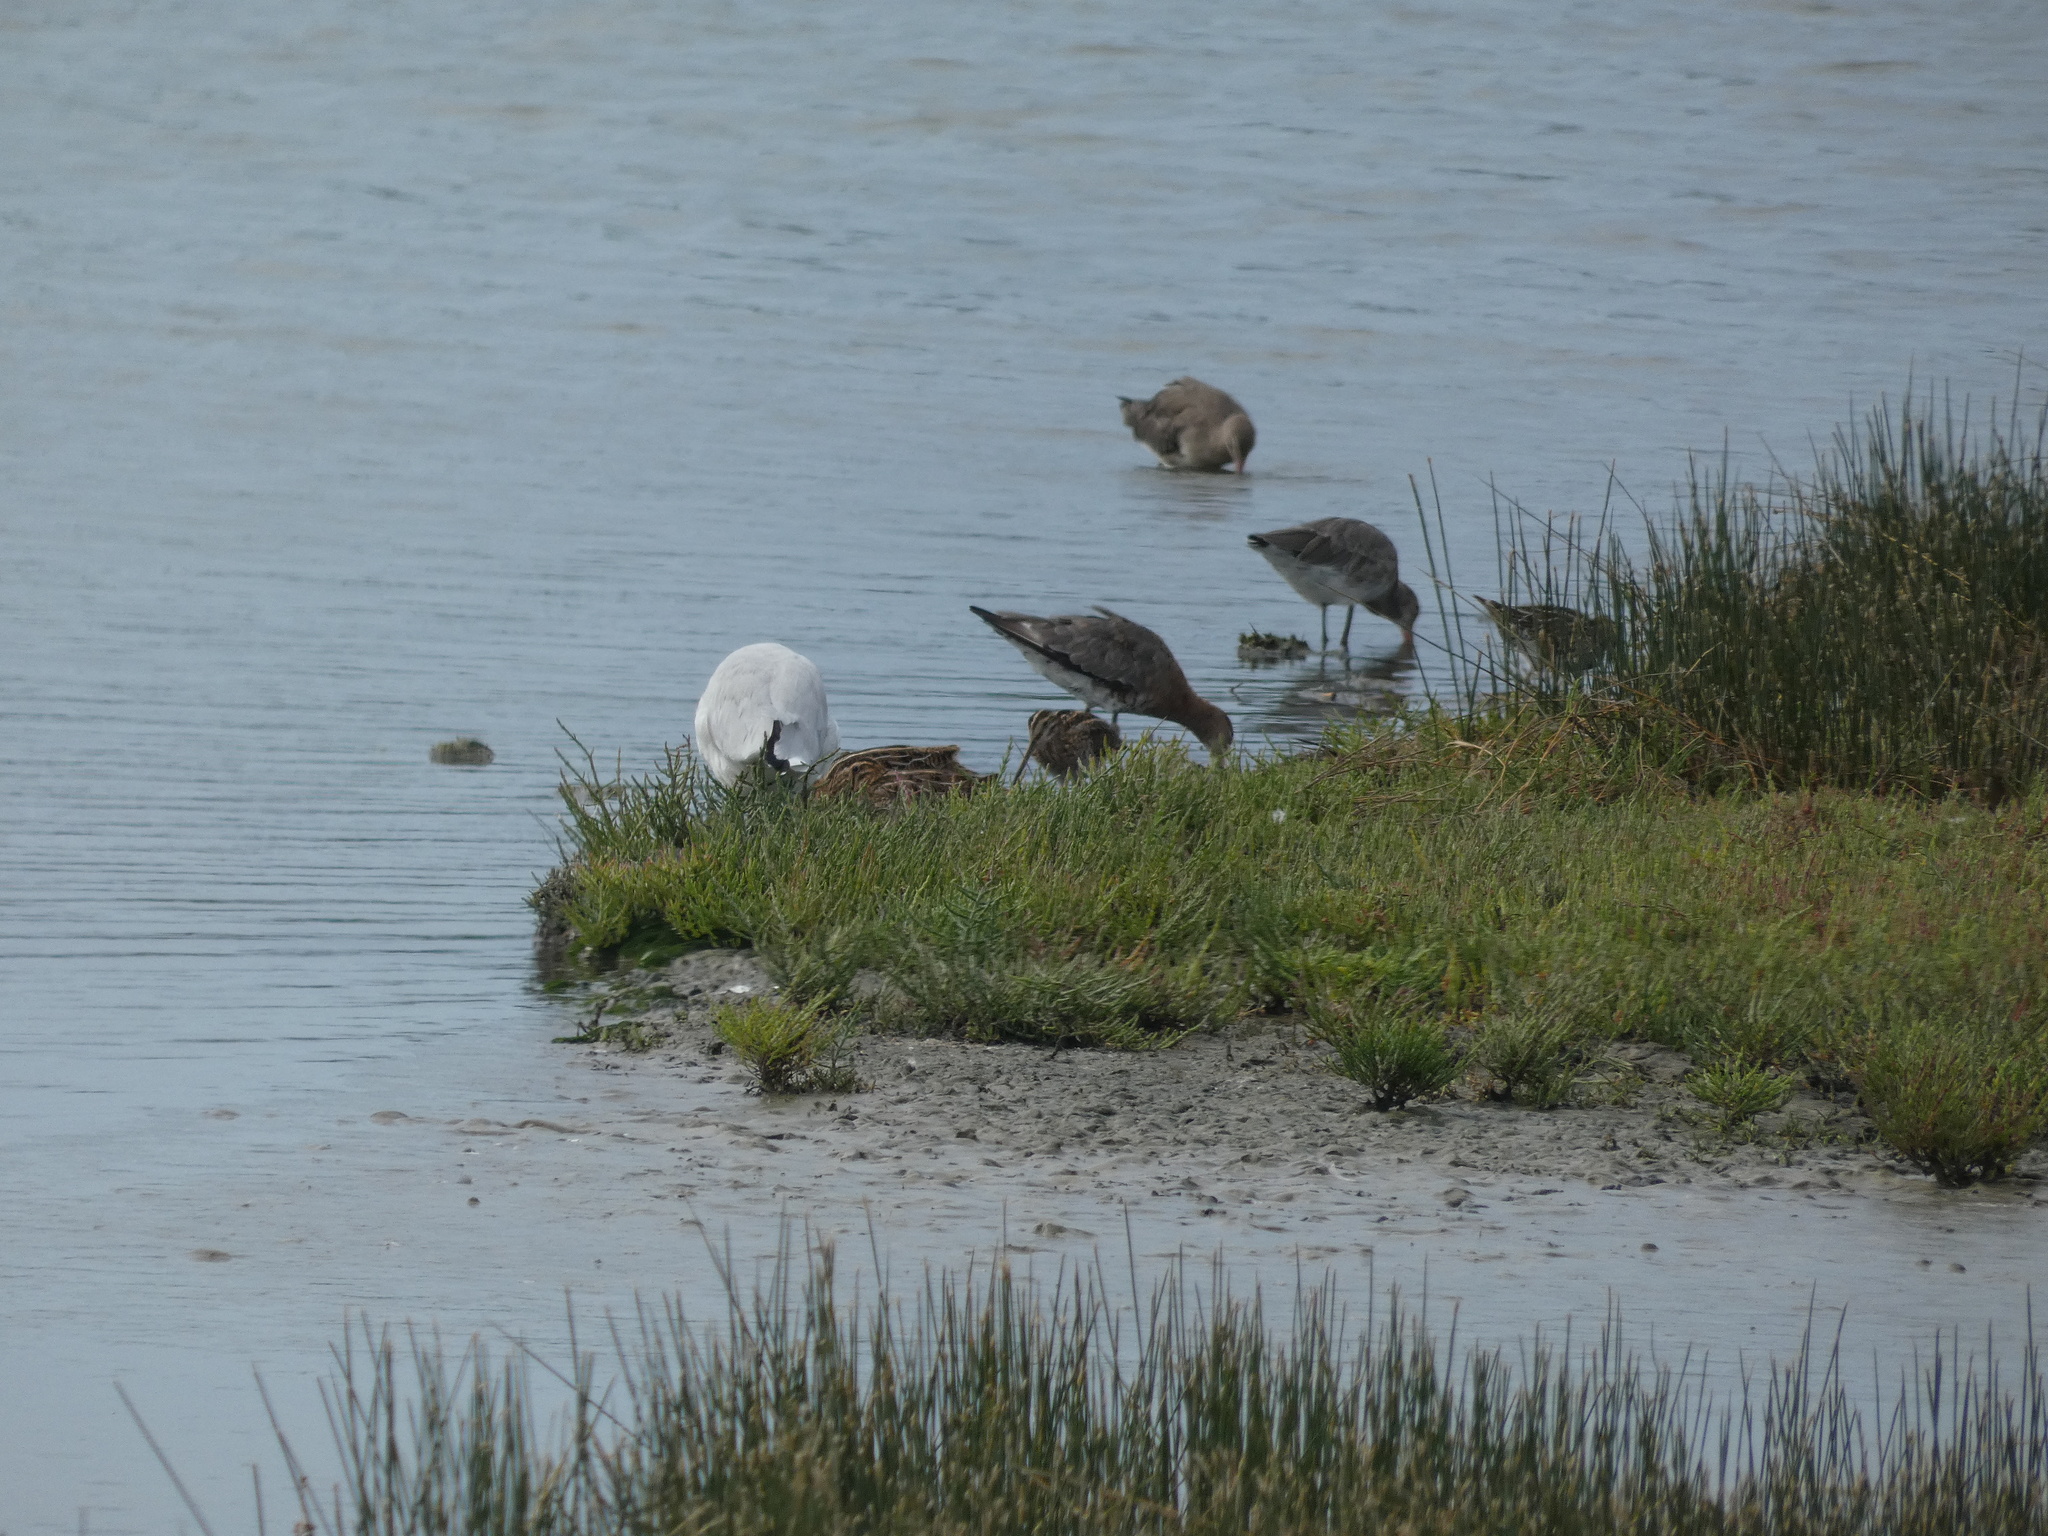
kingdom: Animalia
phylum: Chordata
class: Aves
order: Charadriiformes
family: Scolopacidae
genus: Gallinago
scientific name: Gallinago gallinago
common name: Common snipe
